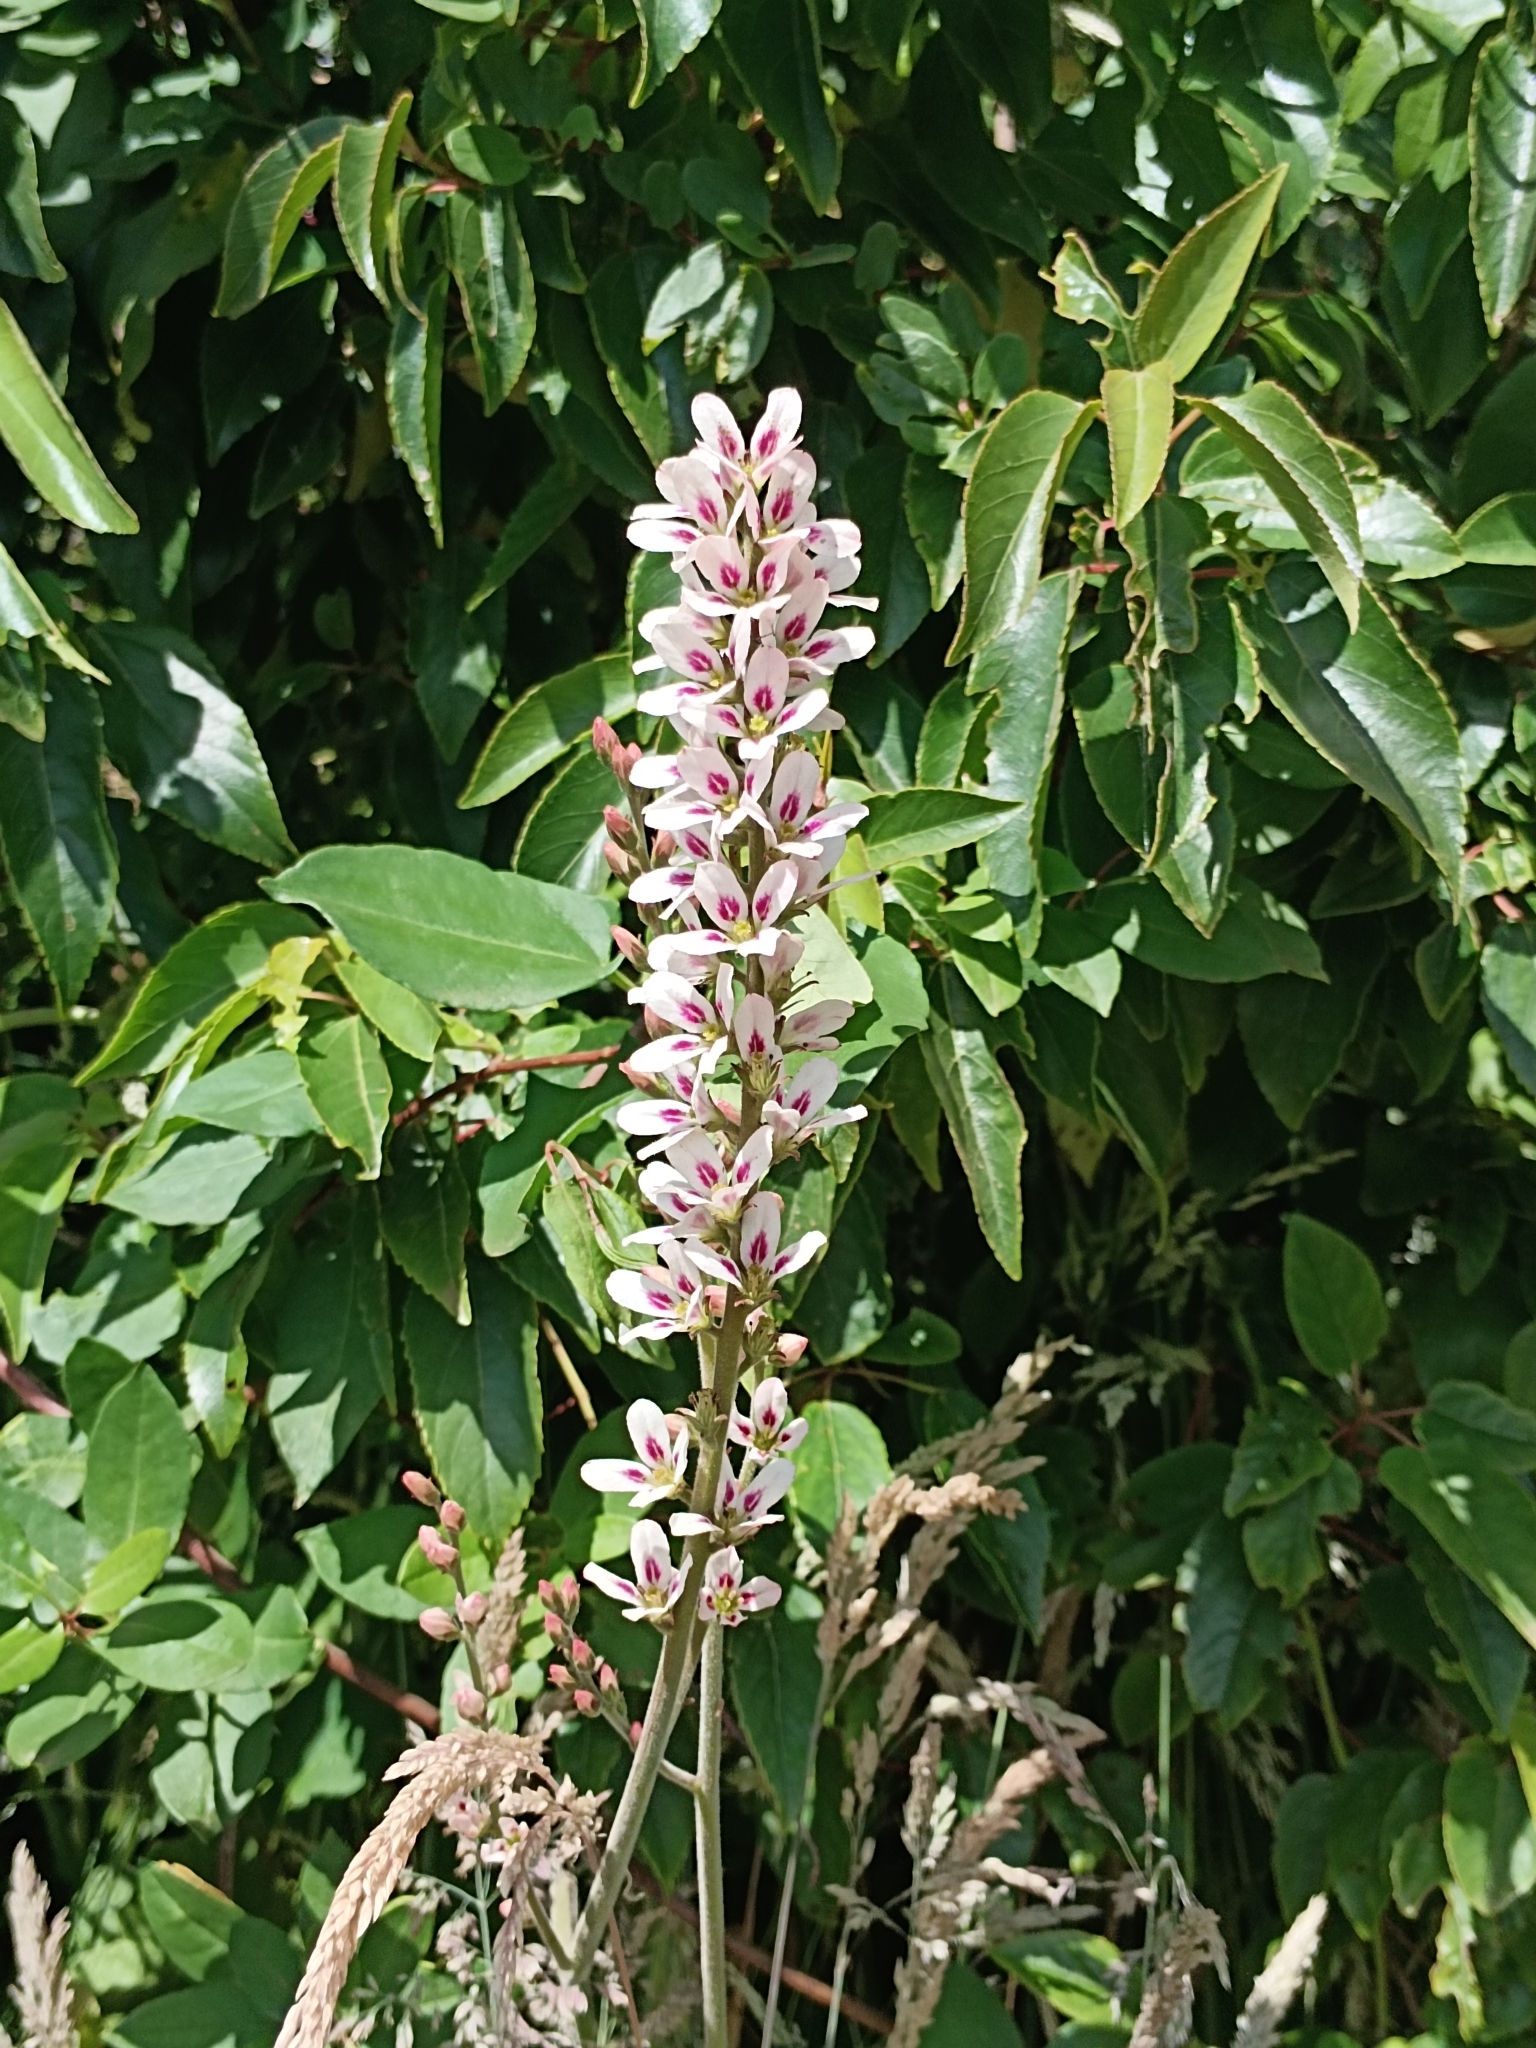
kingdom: Plantae
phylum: Tracheophyta
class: Magnoliopsida
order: Geraniales
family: Francoaceae
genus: Francoa
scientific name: Francoa appendiculata
